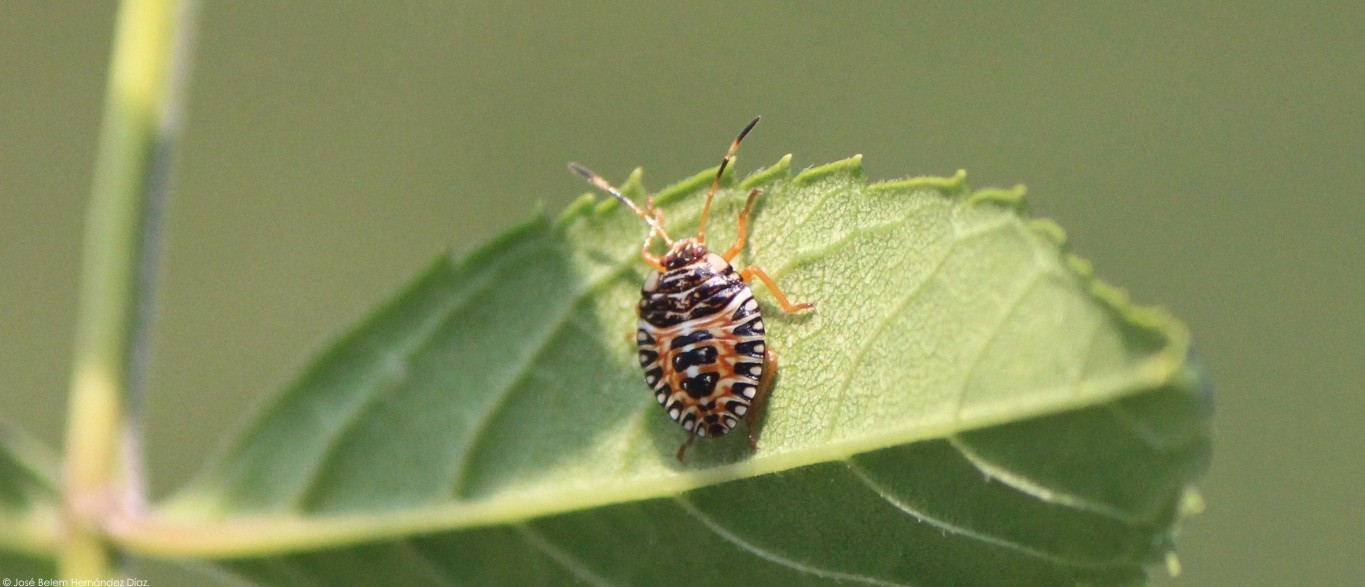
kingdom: Animalia
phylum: Arthropoda
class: Insecta
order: Hemiptera
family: Pentatomidae
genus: Edessa
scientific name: Edessa reticulata
